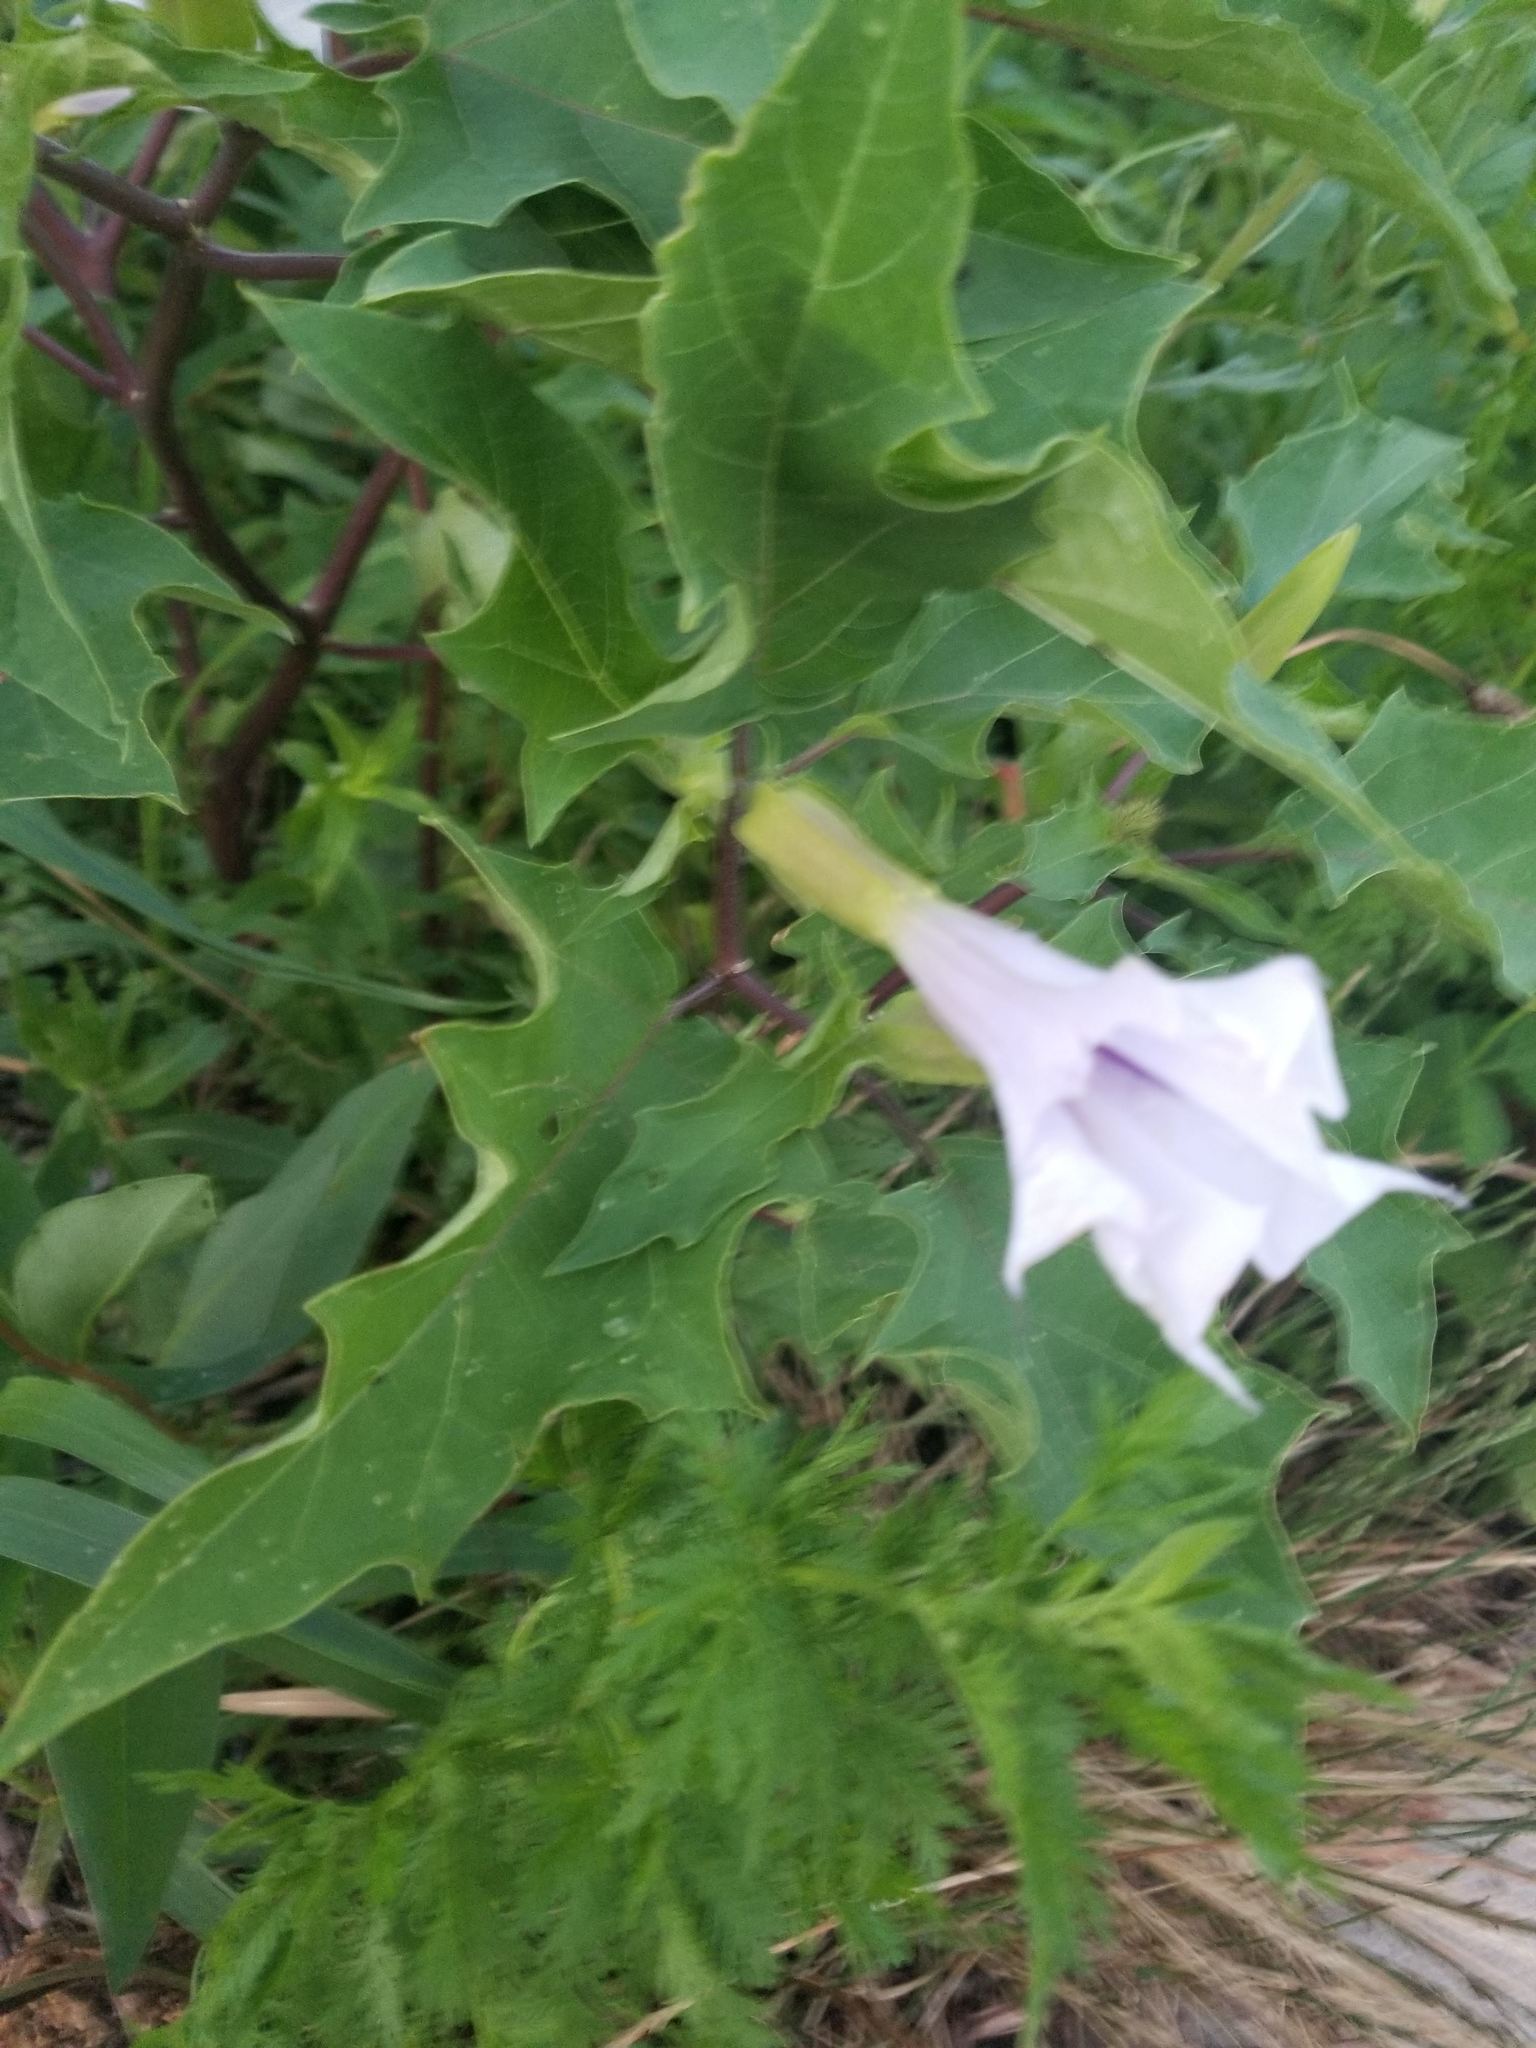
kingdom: Plantae
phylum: Tracheophyta
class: Magnoliopsida
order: Solanales
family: Solanaceae
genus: Datura
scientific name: Datura stramonium
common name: Thorn-apple
